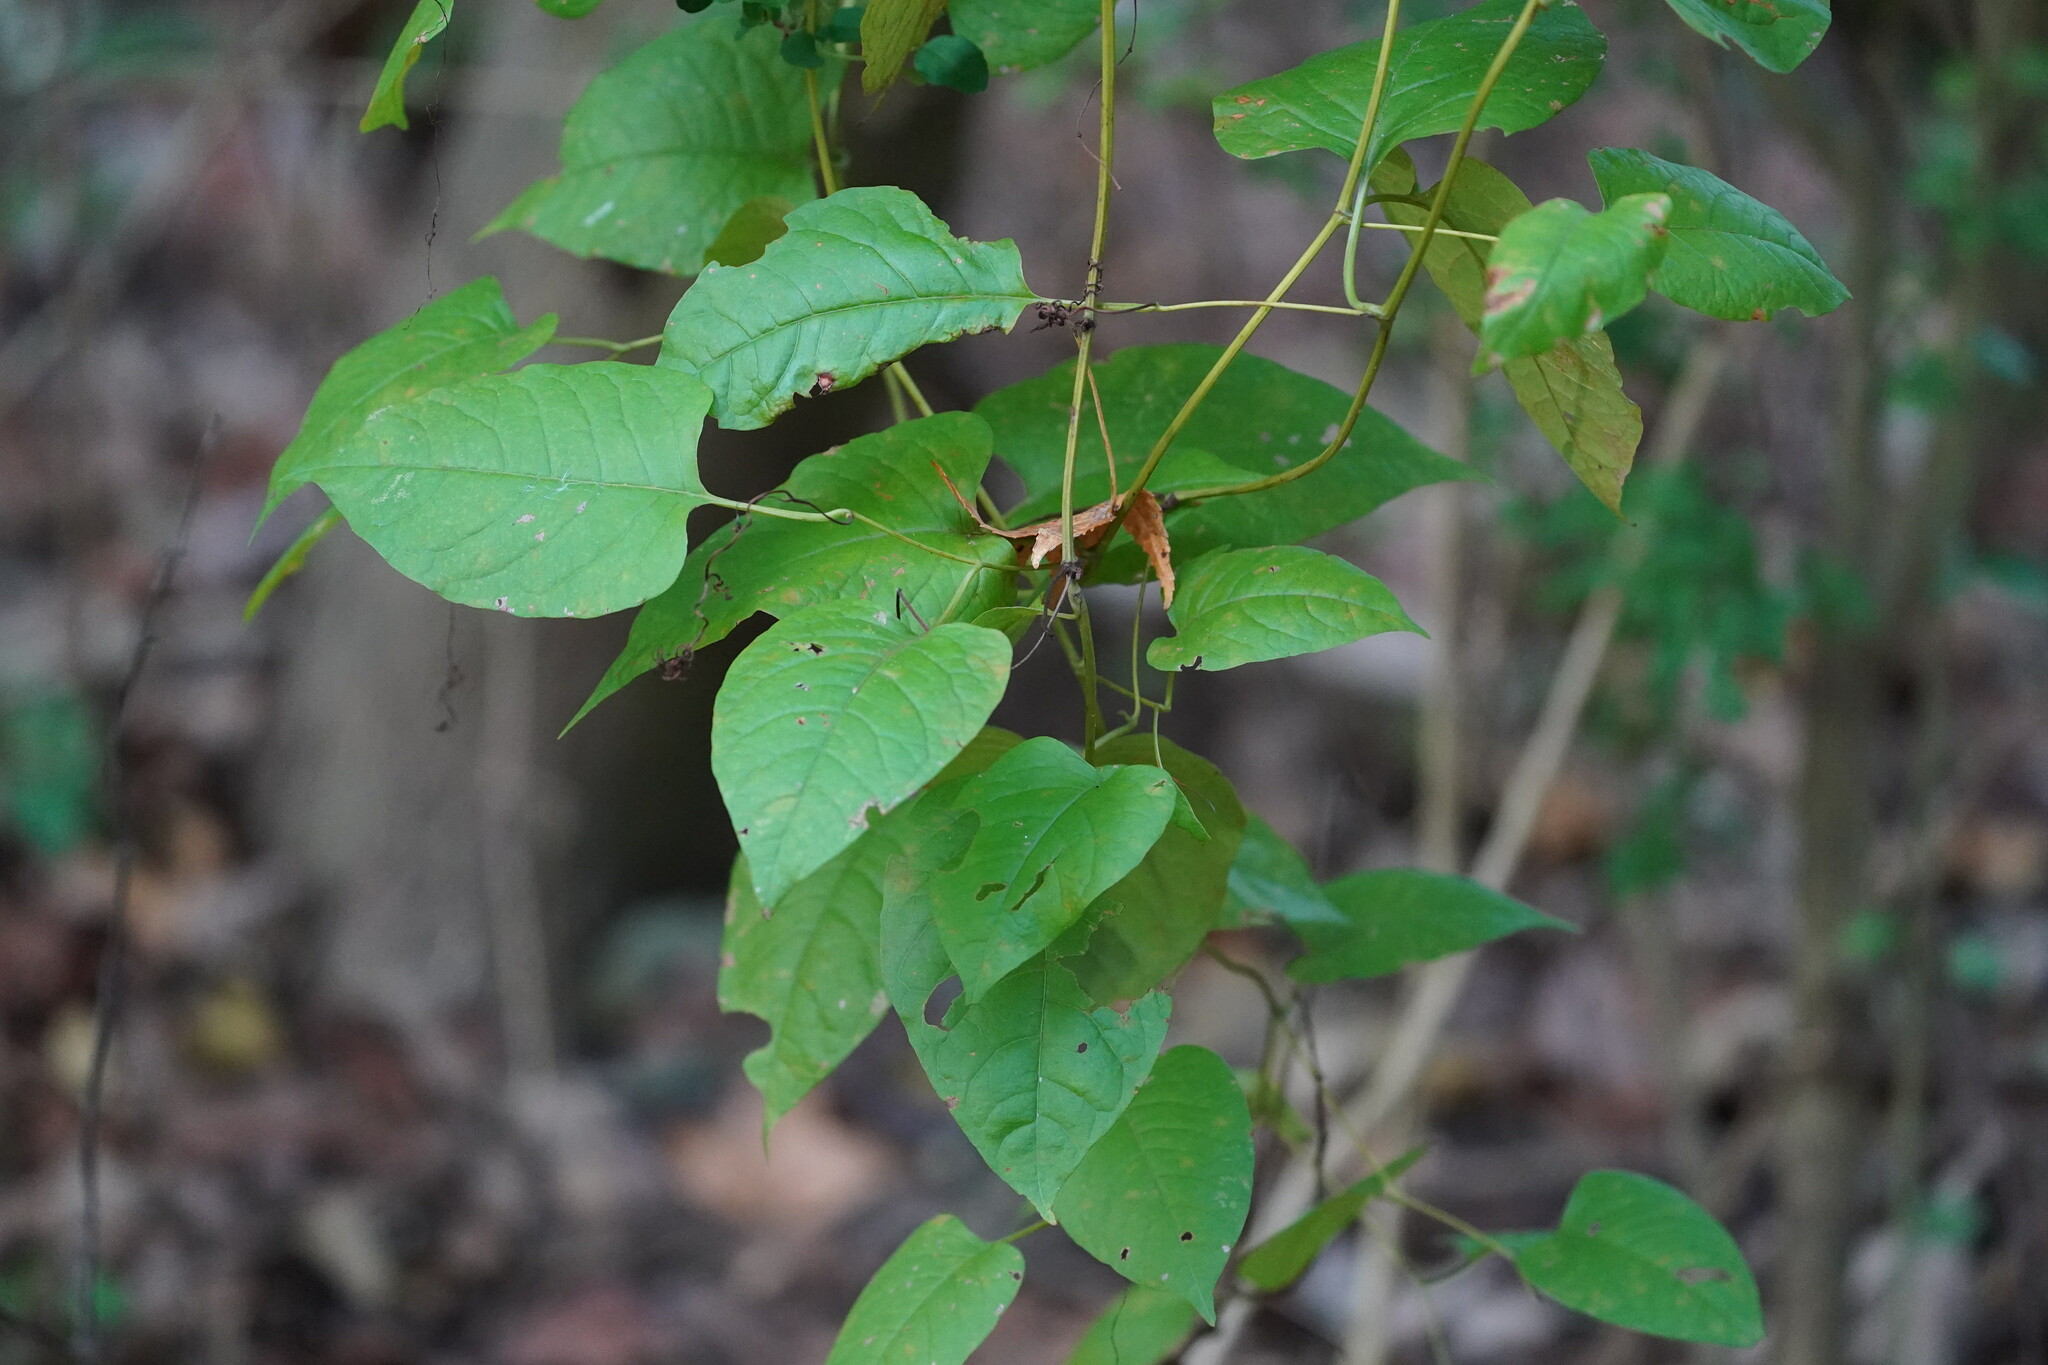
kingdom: Plantae
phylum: Tracheophyta
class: Magnoliopsida
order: Caryophyllales
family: Polygonaceae
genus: Brunnichia
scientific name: Brunnichia ovata
